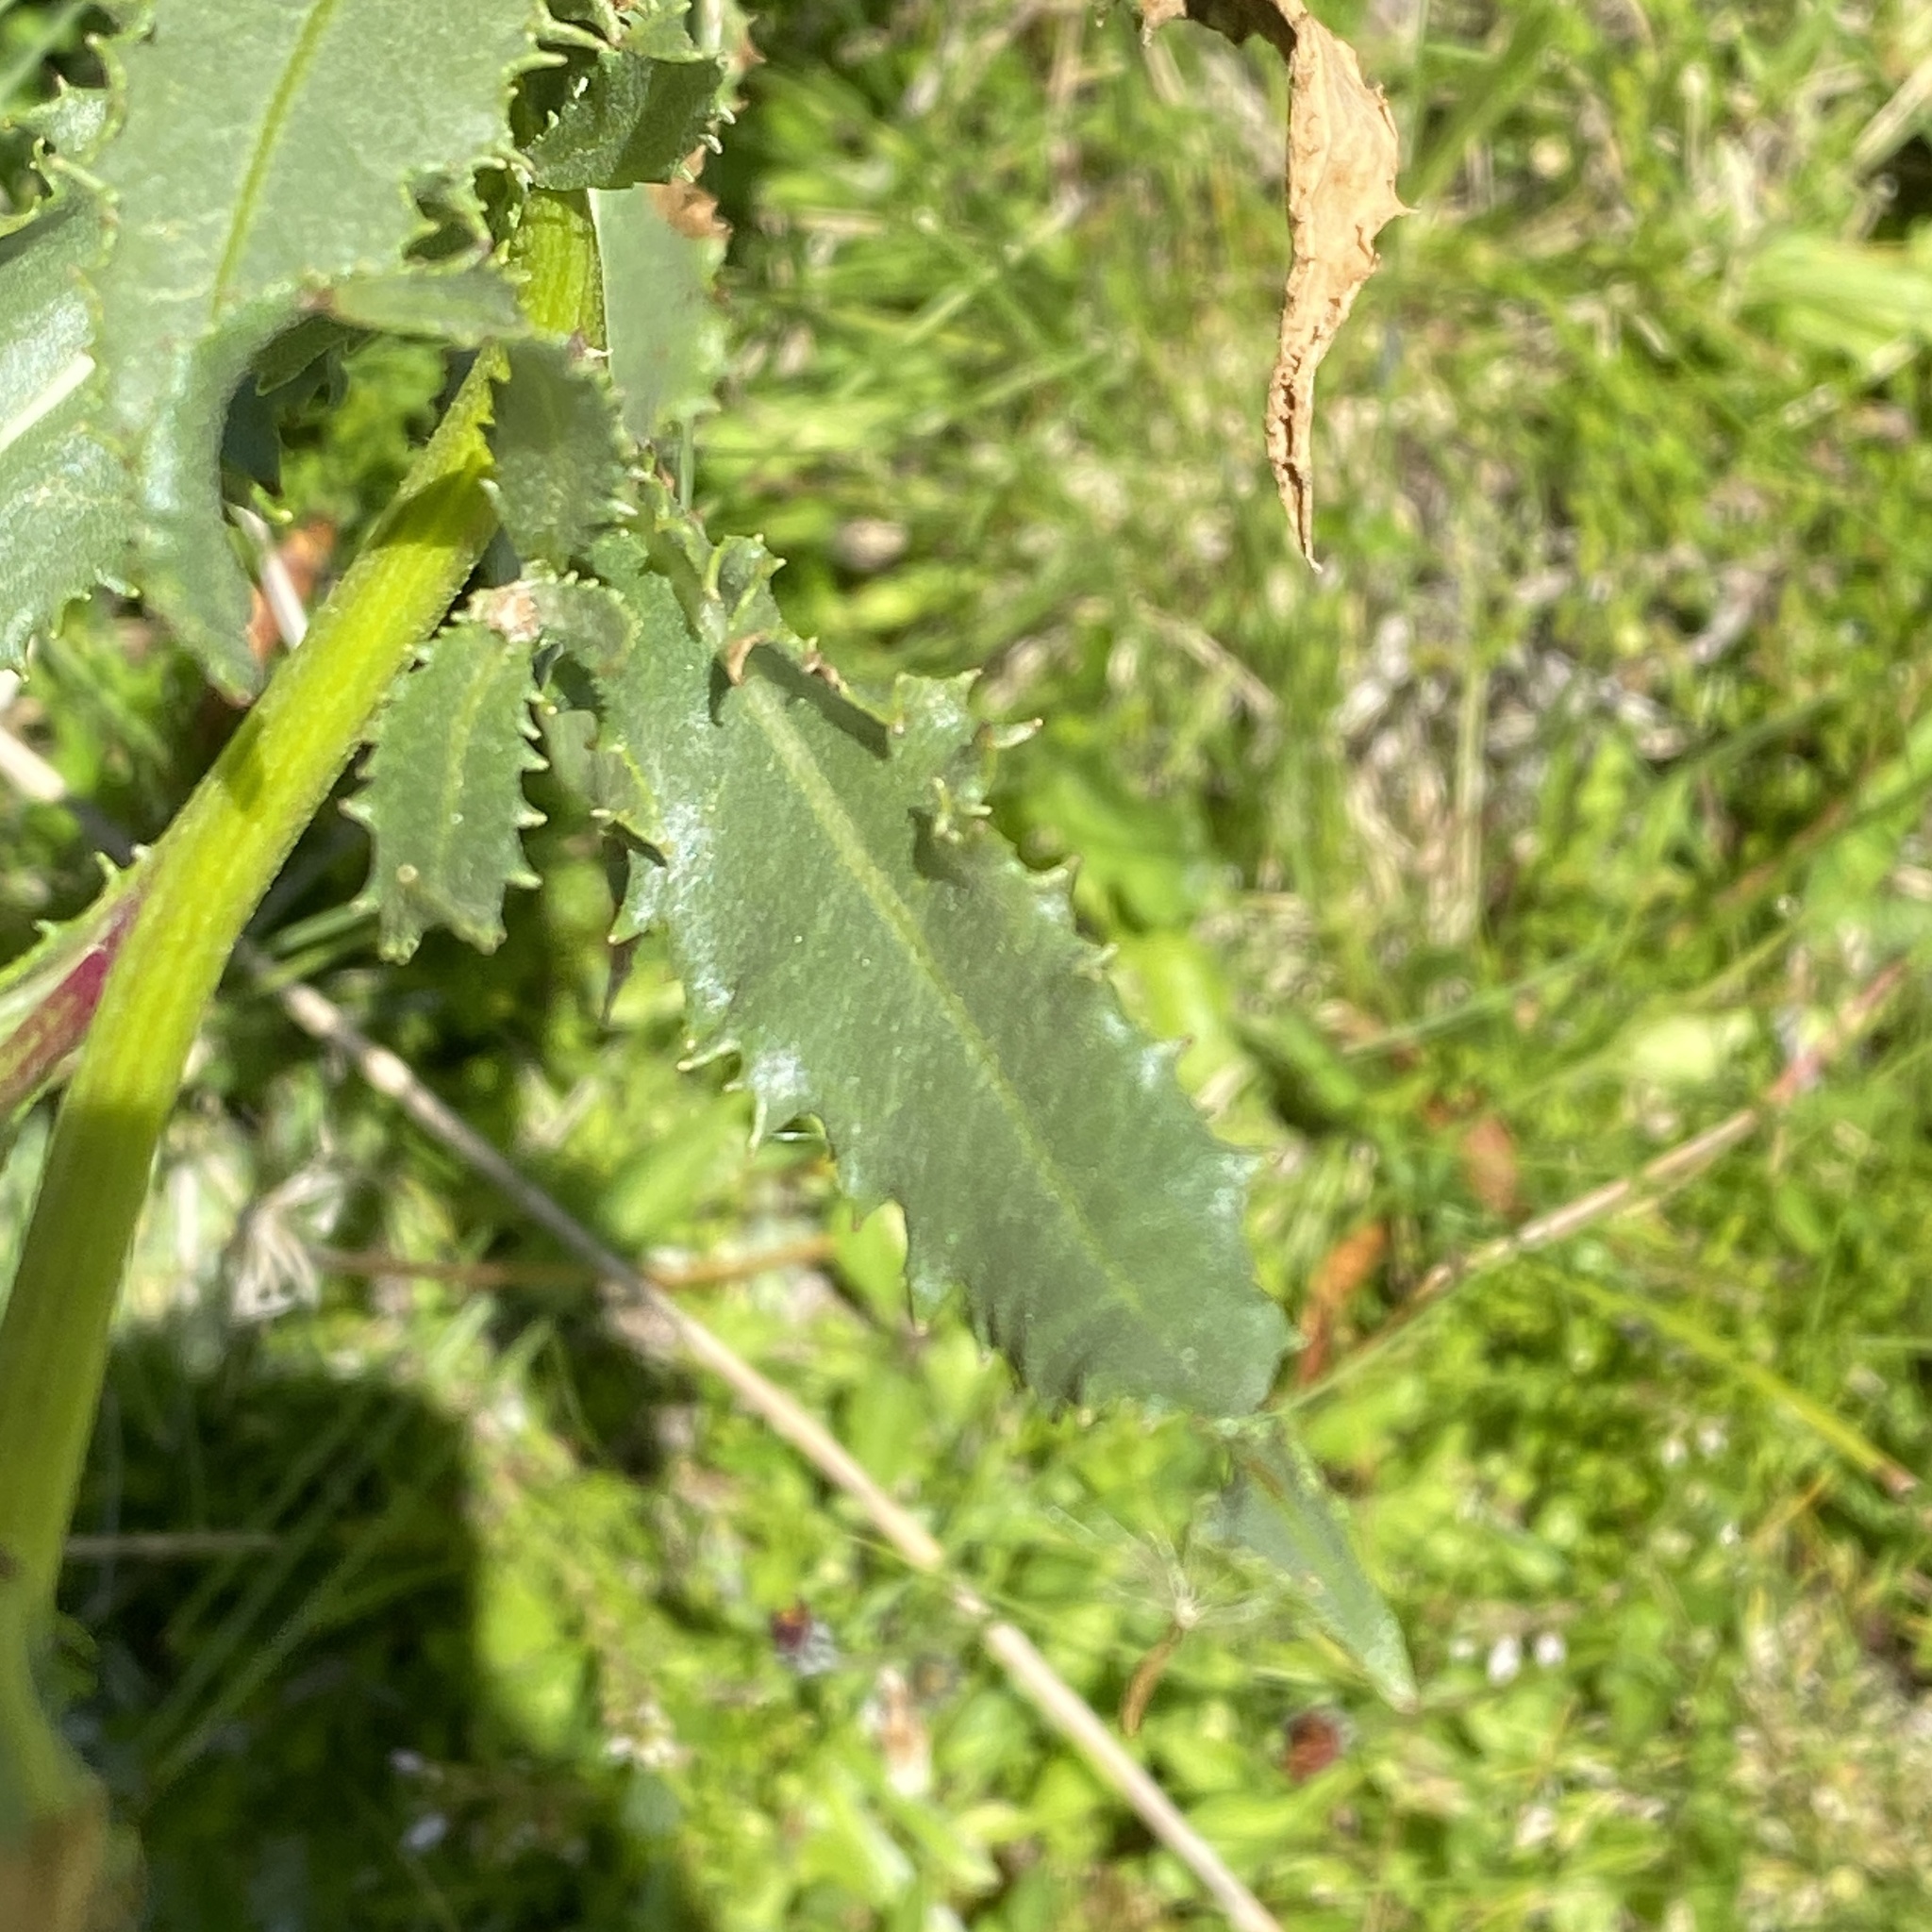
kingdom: Plantae
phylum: Tracheophyta
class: Magnoliopsida
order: Asterales
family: Asteraceae
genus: Senecio
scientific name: Senecio pyrenaicus
